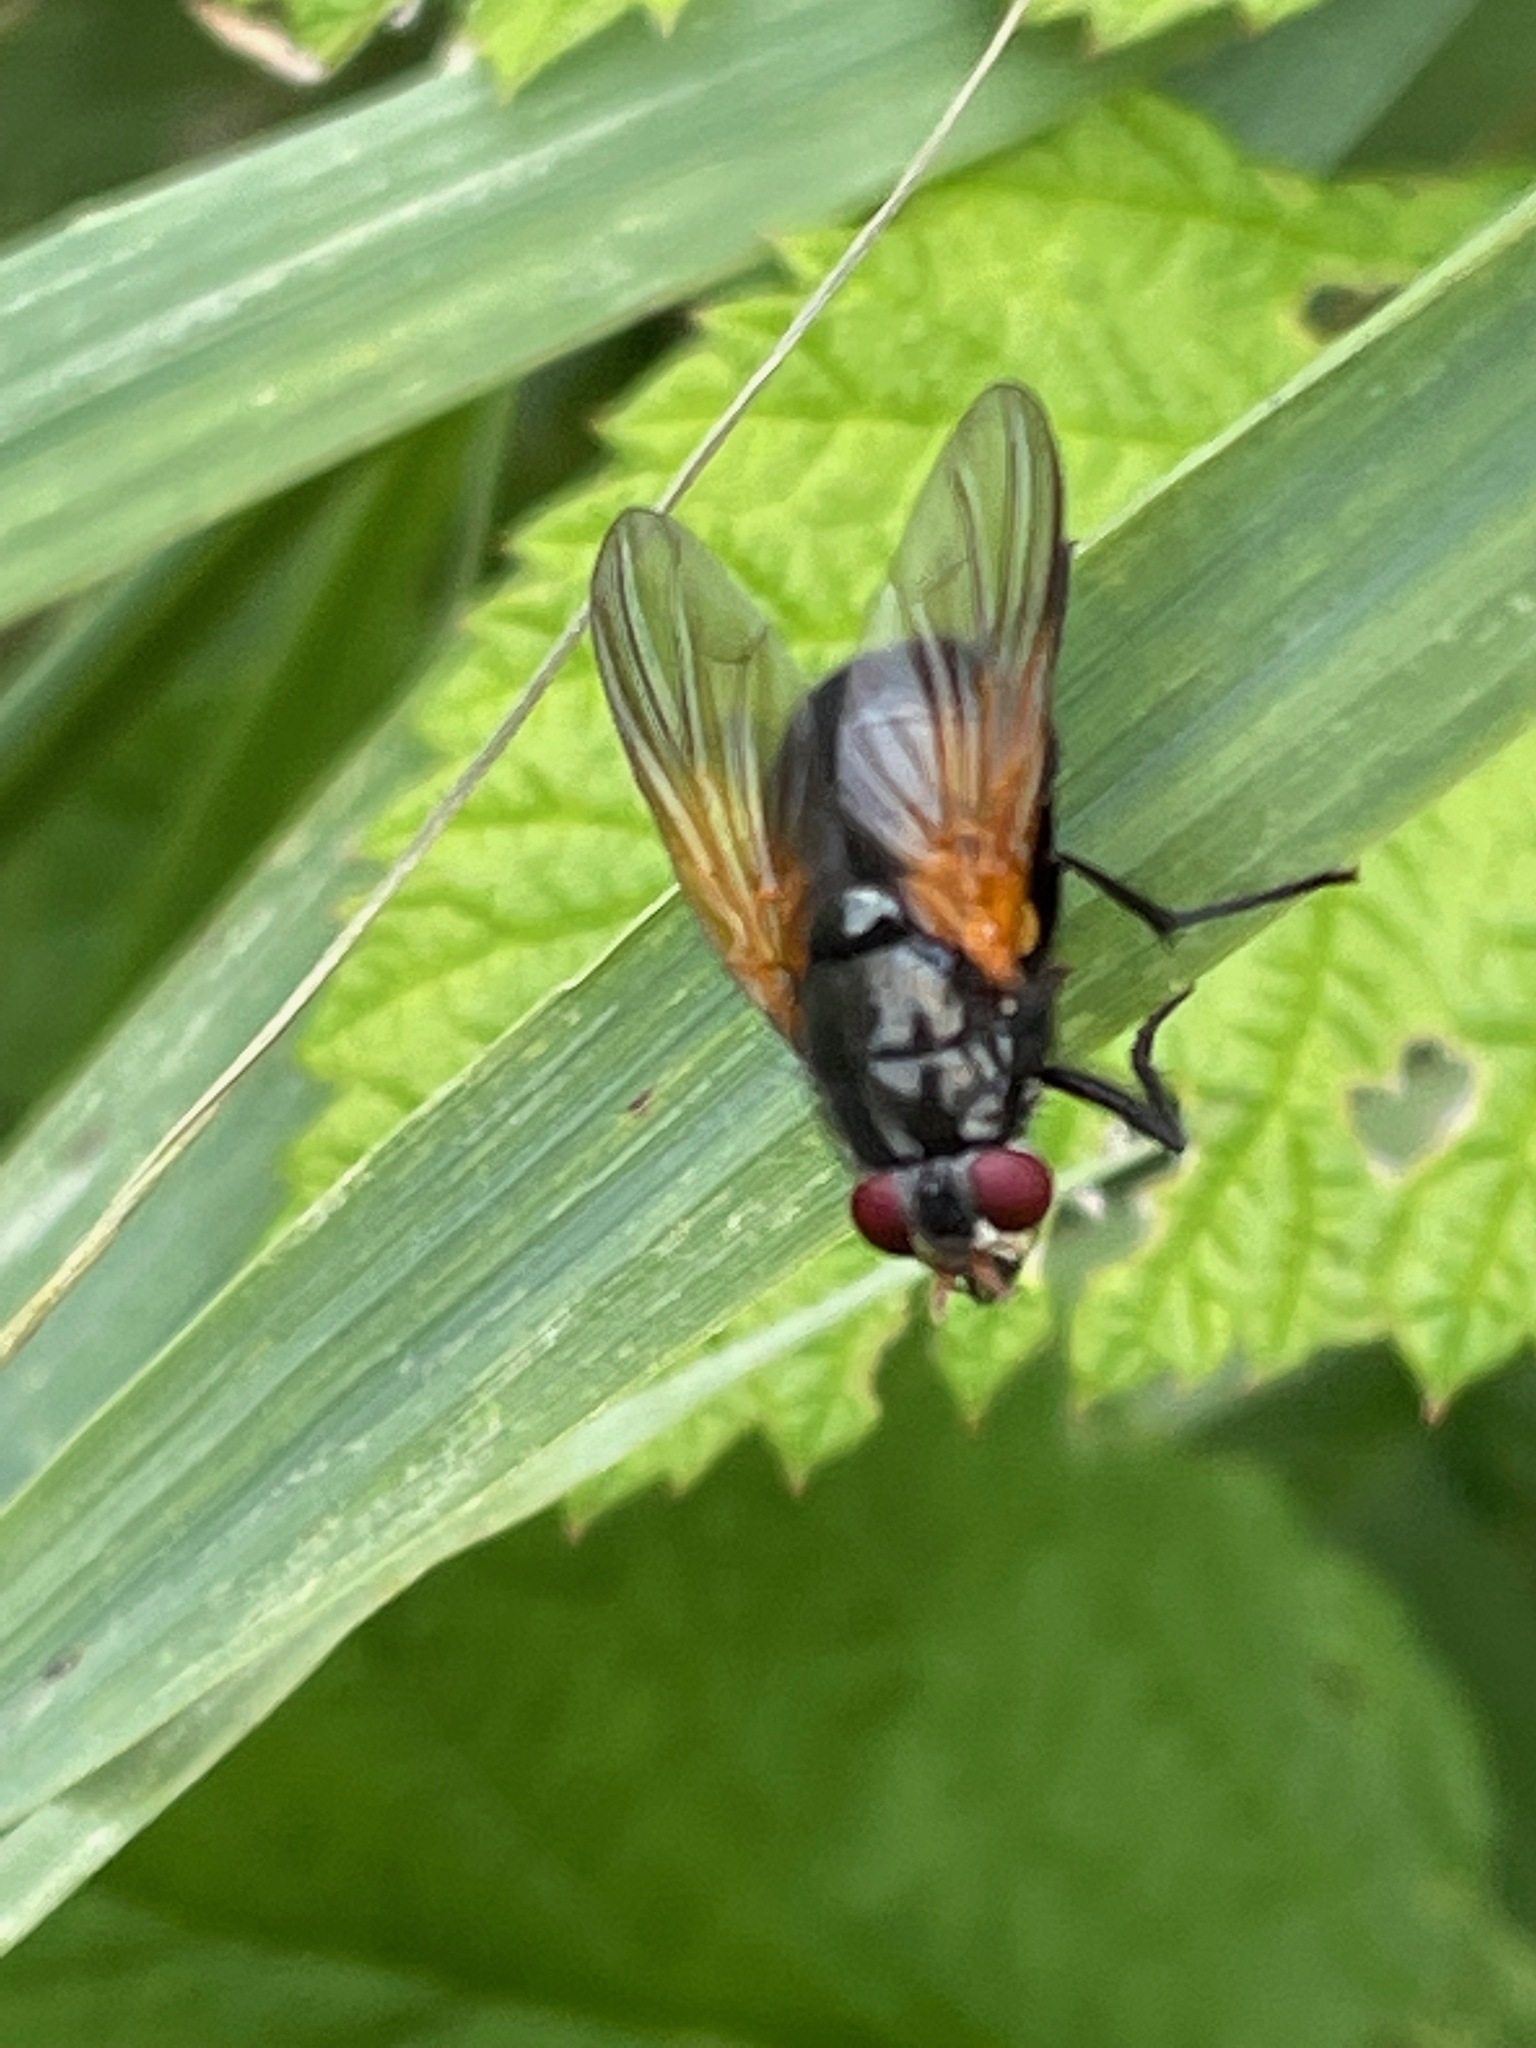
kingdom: Animalia
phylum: Arthropoda
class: Insecta
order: Diptera
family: Muscidae
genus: Mesembrina
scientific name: Mesembrina latreillii
